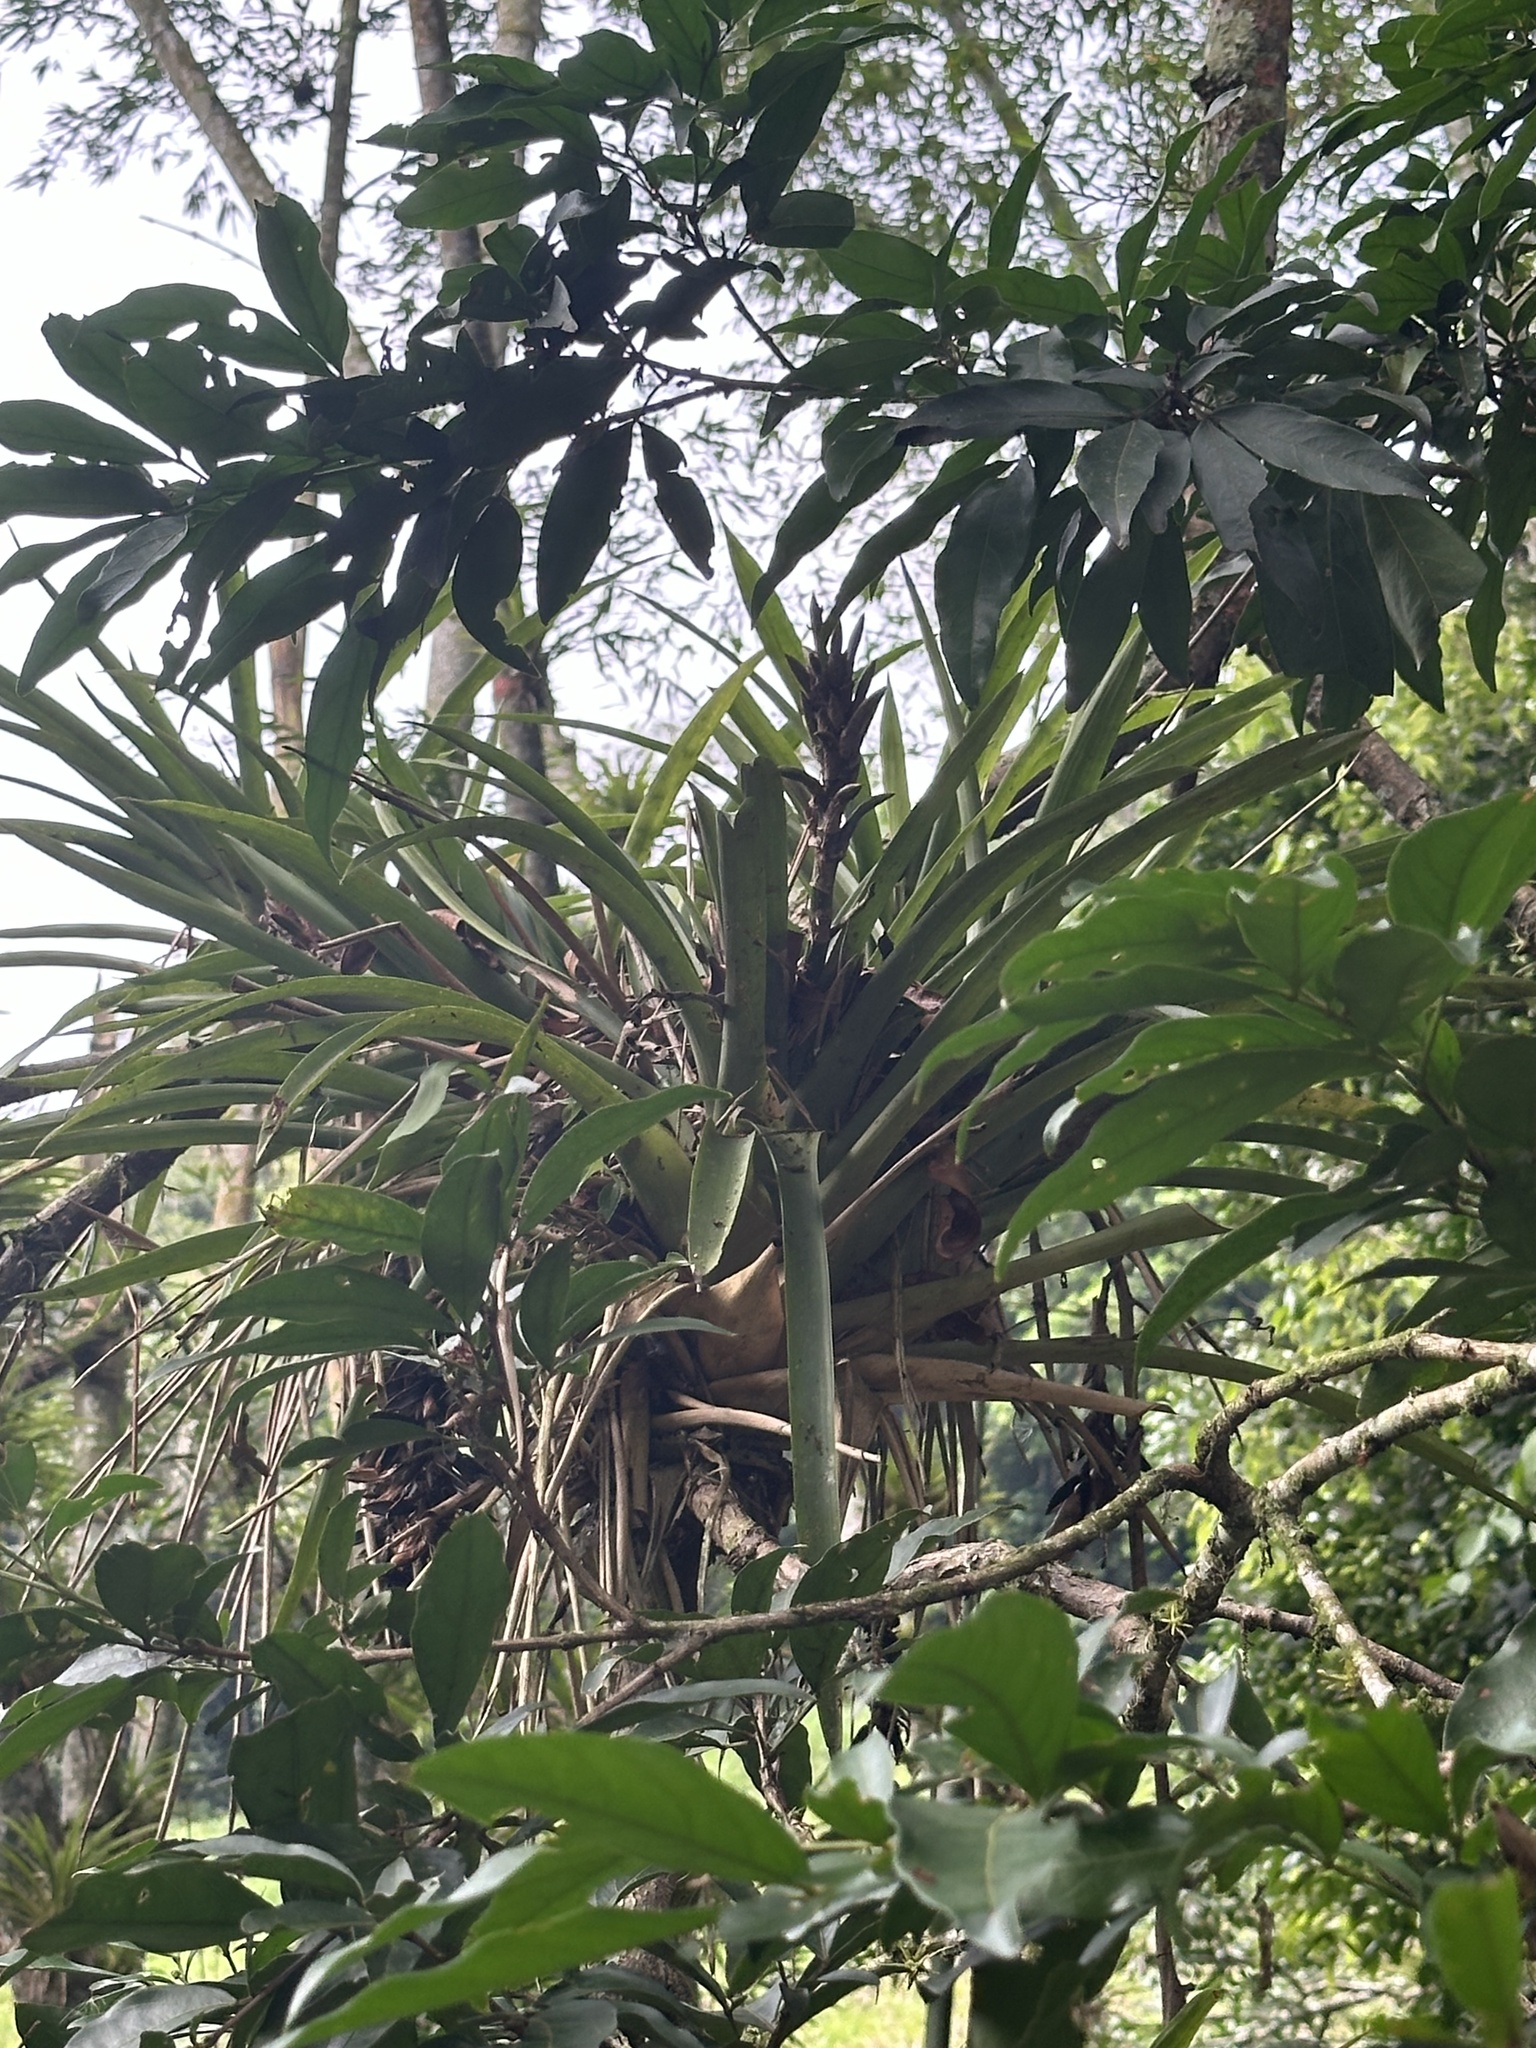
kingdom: Plantae
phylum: Tracheophyta
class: Liliopsida
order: Poales
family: Bromeliaceae
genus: Guzmania
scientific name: Guzmania monostachia
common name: West indian tufted airplant
